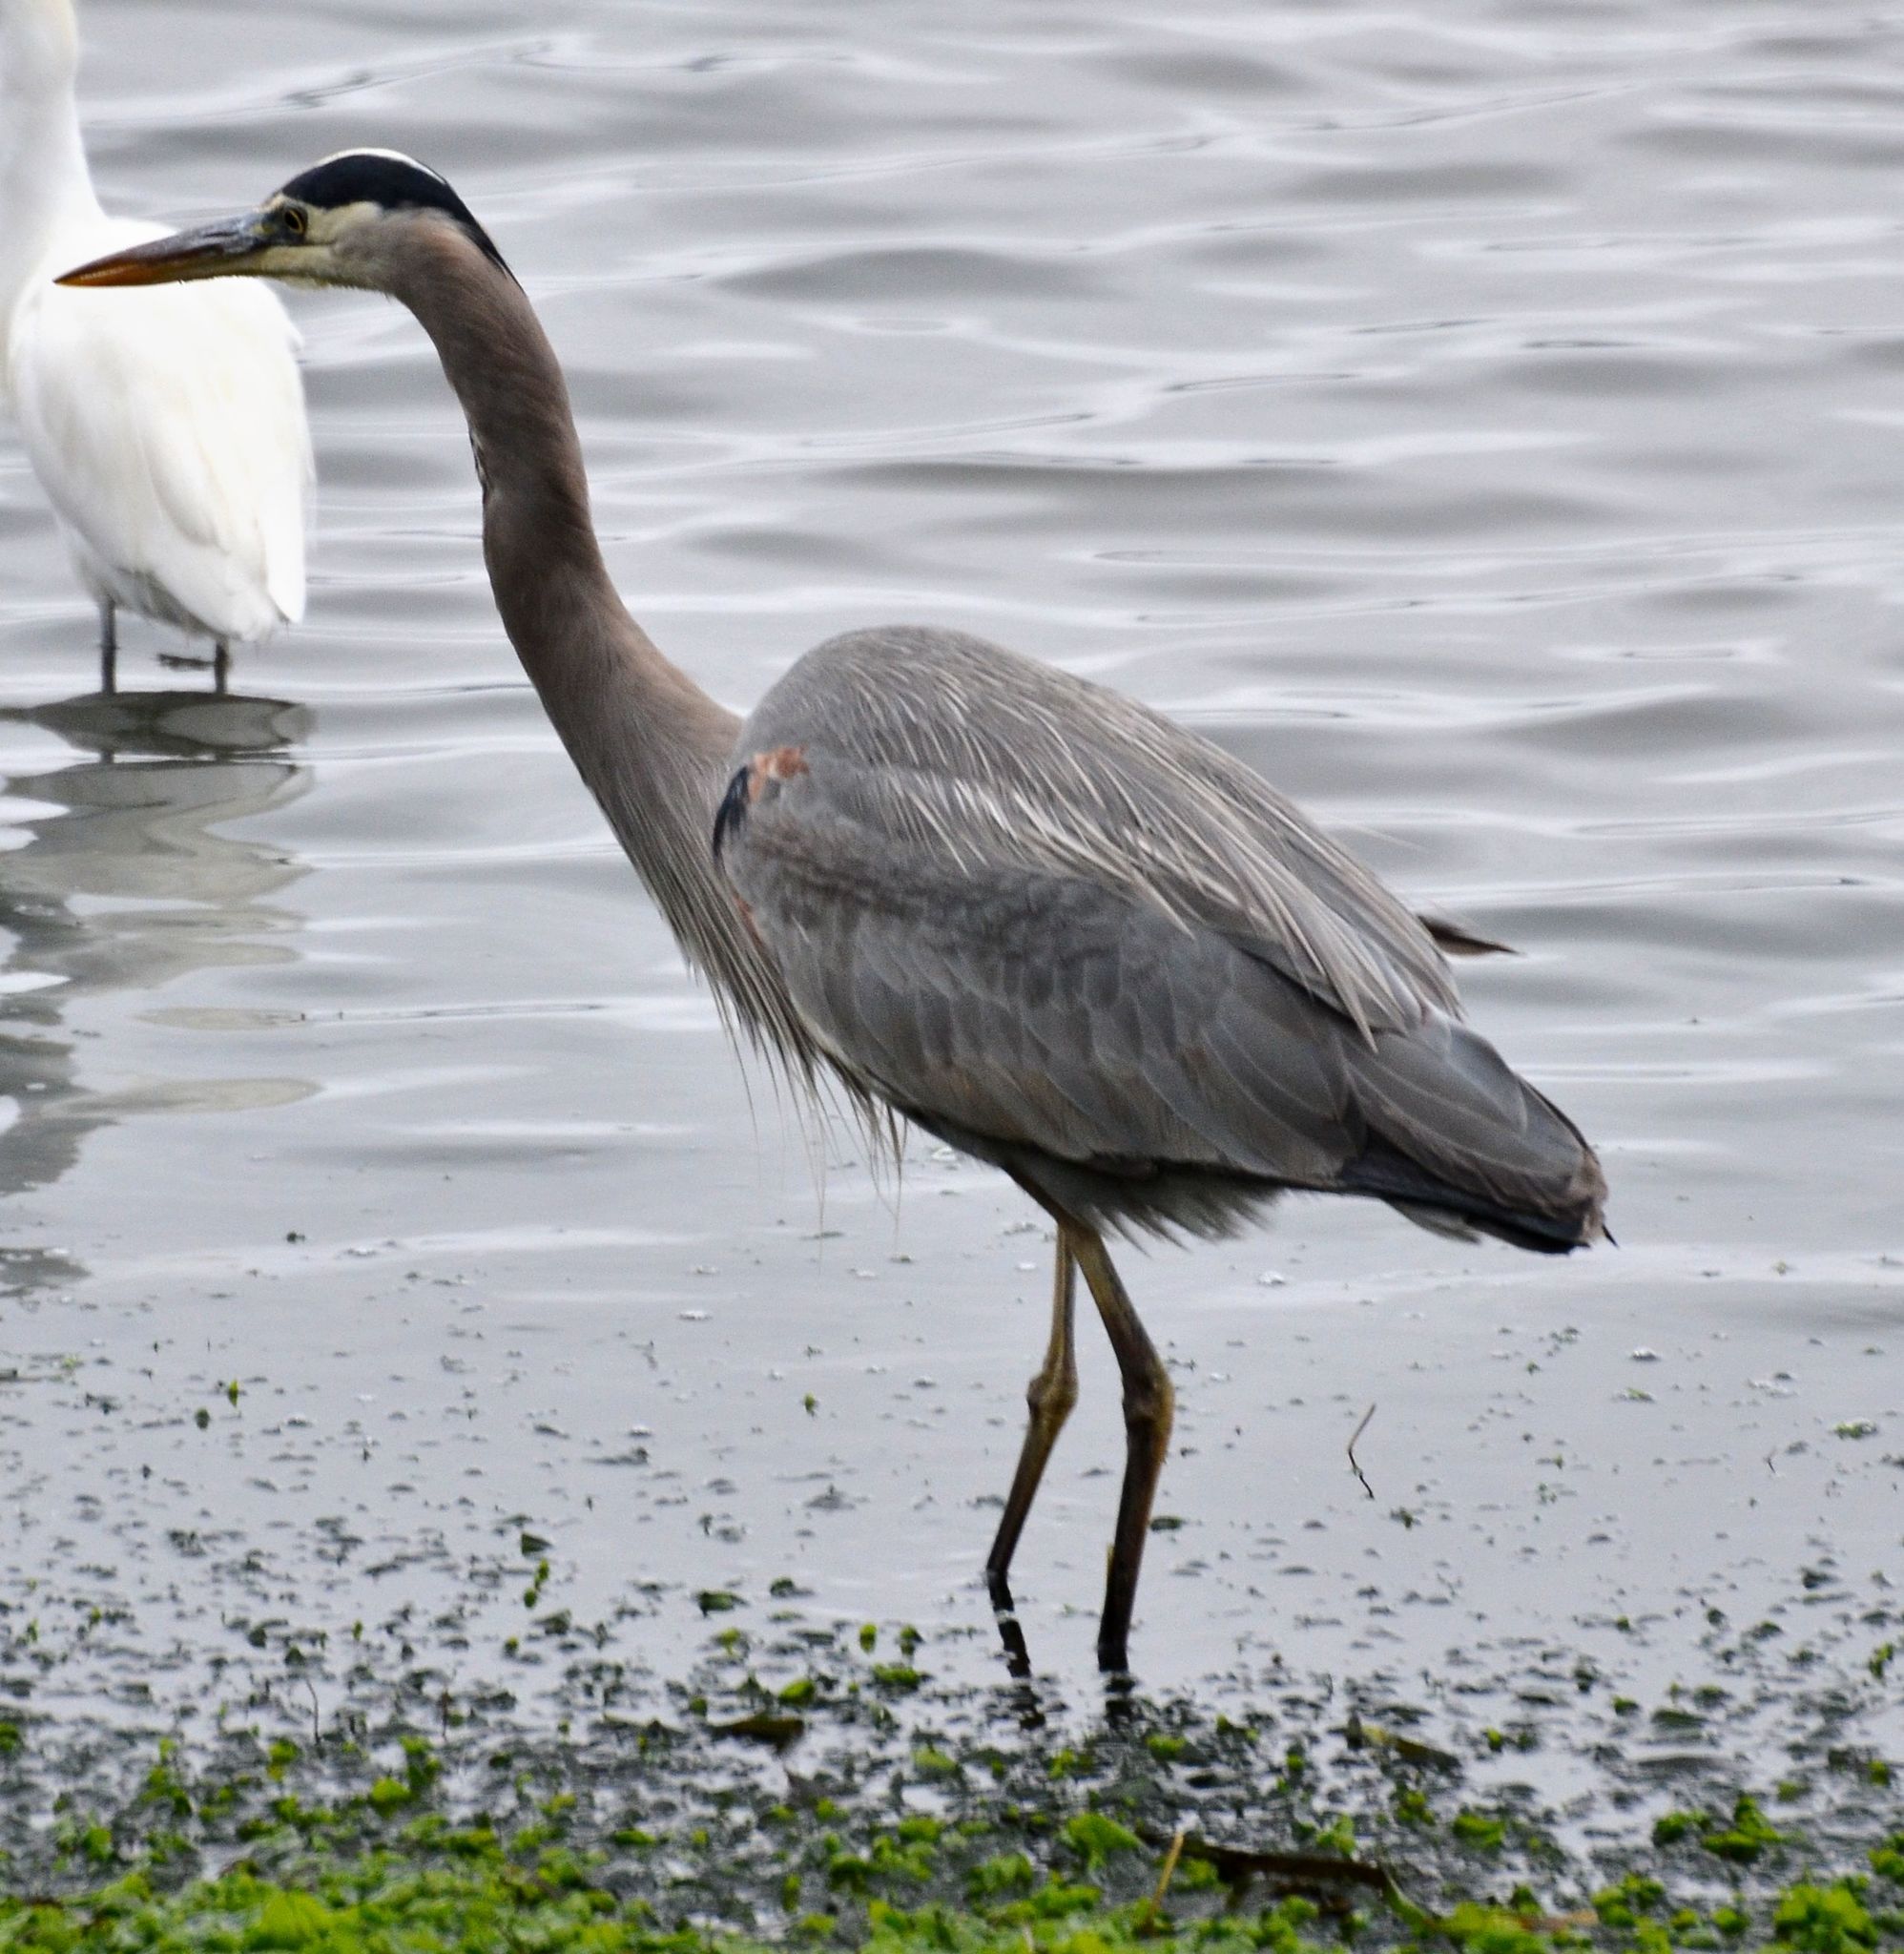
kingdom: Animalia
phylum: Chordata
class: Aves
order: Pelecaniformes
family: Ardeidae
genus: Ardea
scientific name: Ardea herodias
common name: Great blue heron
